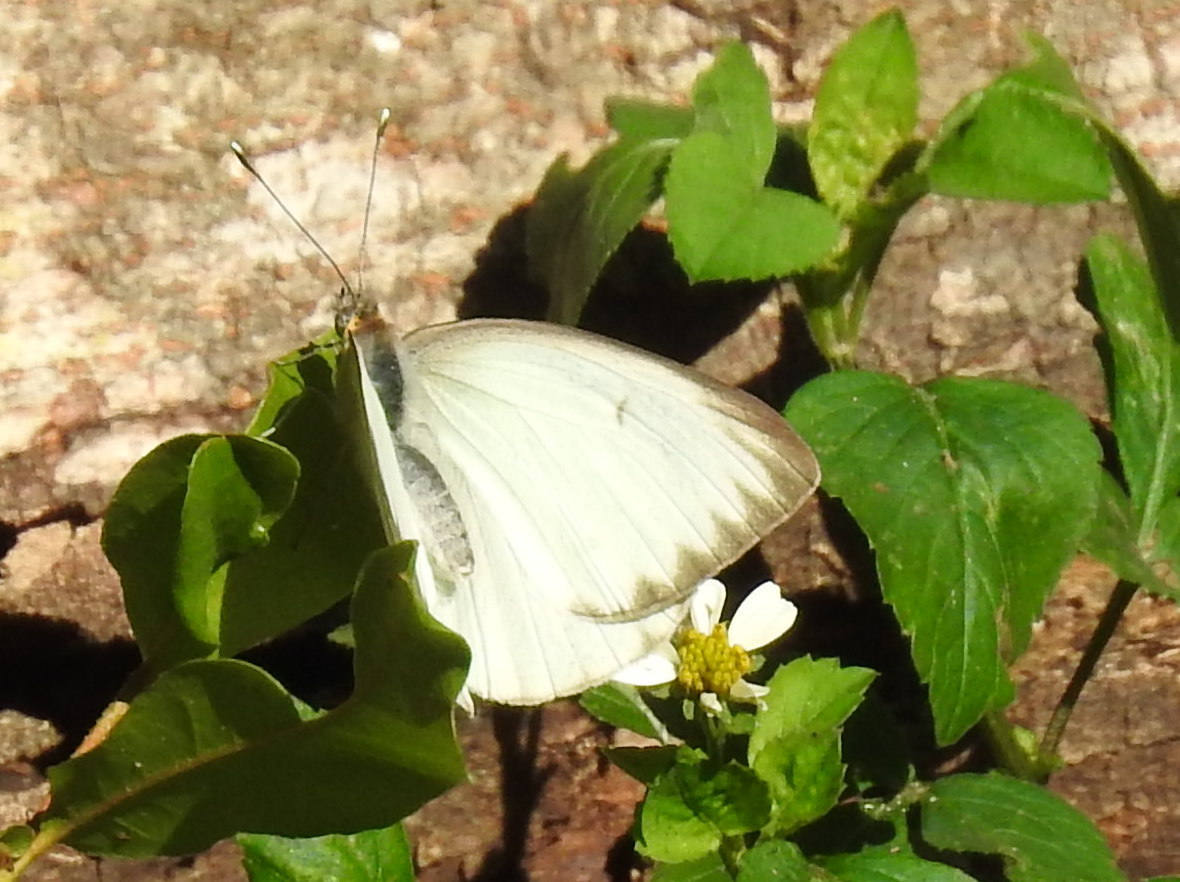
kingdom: Animalia
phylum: Arthropoda
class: Insecta
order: Lepidoptera
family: Pieridae
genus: Ascia
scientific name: Ascia monuste
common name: Great southern white
